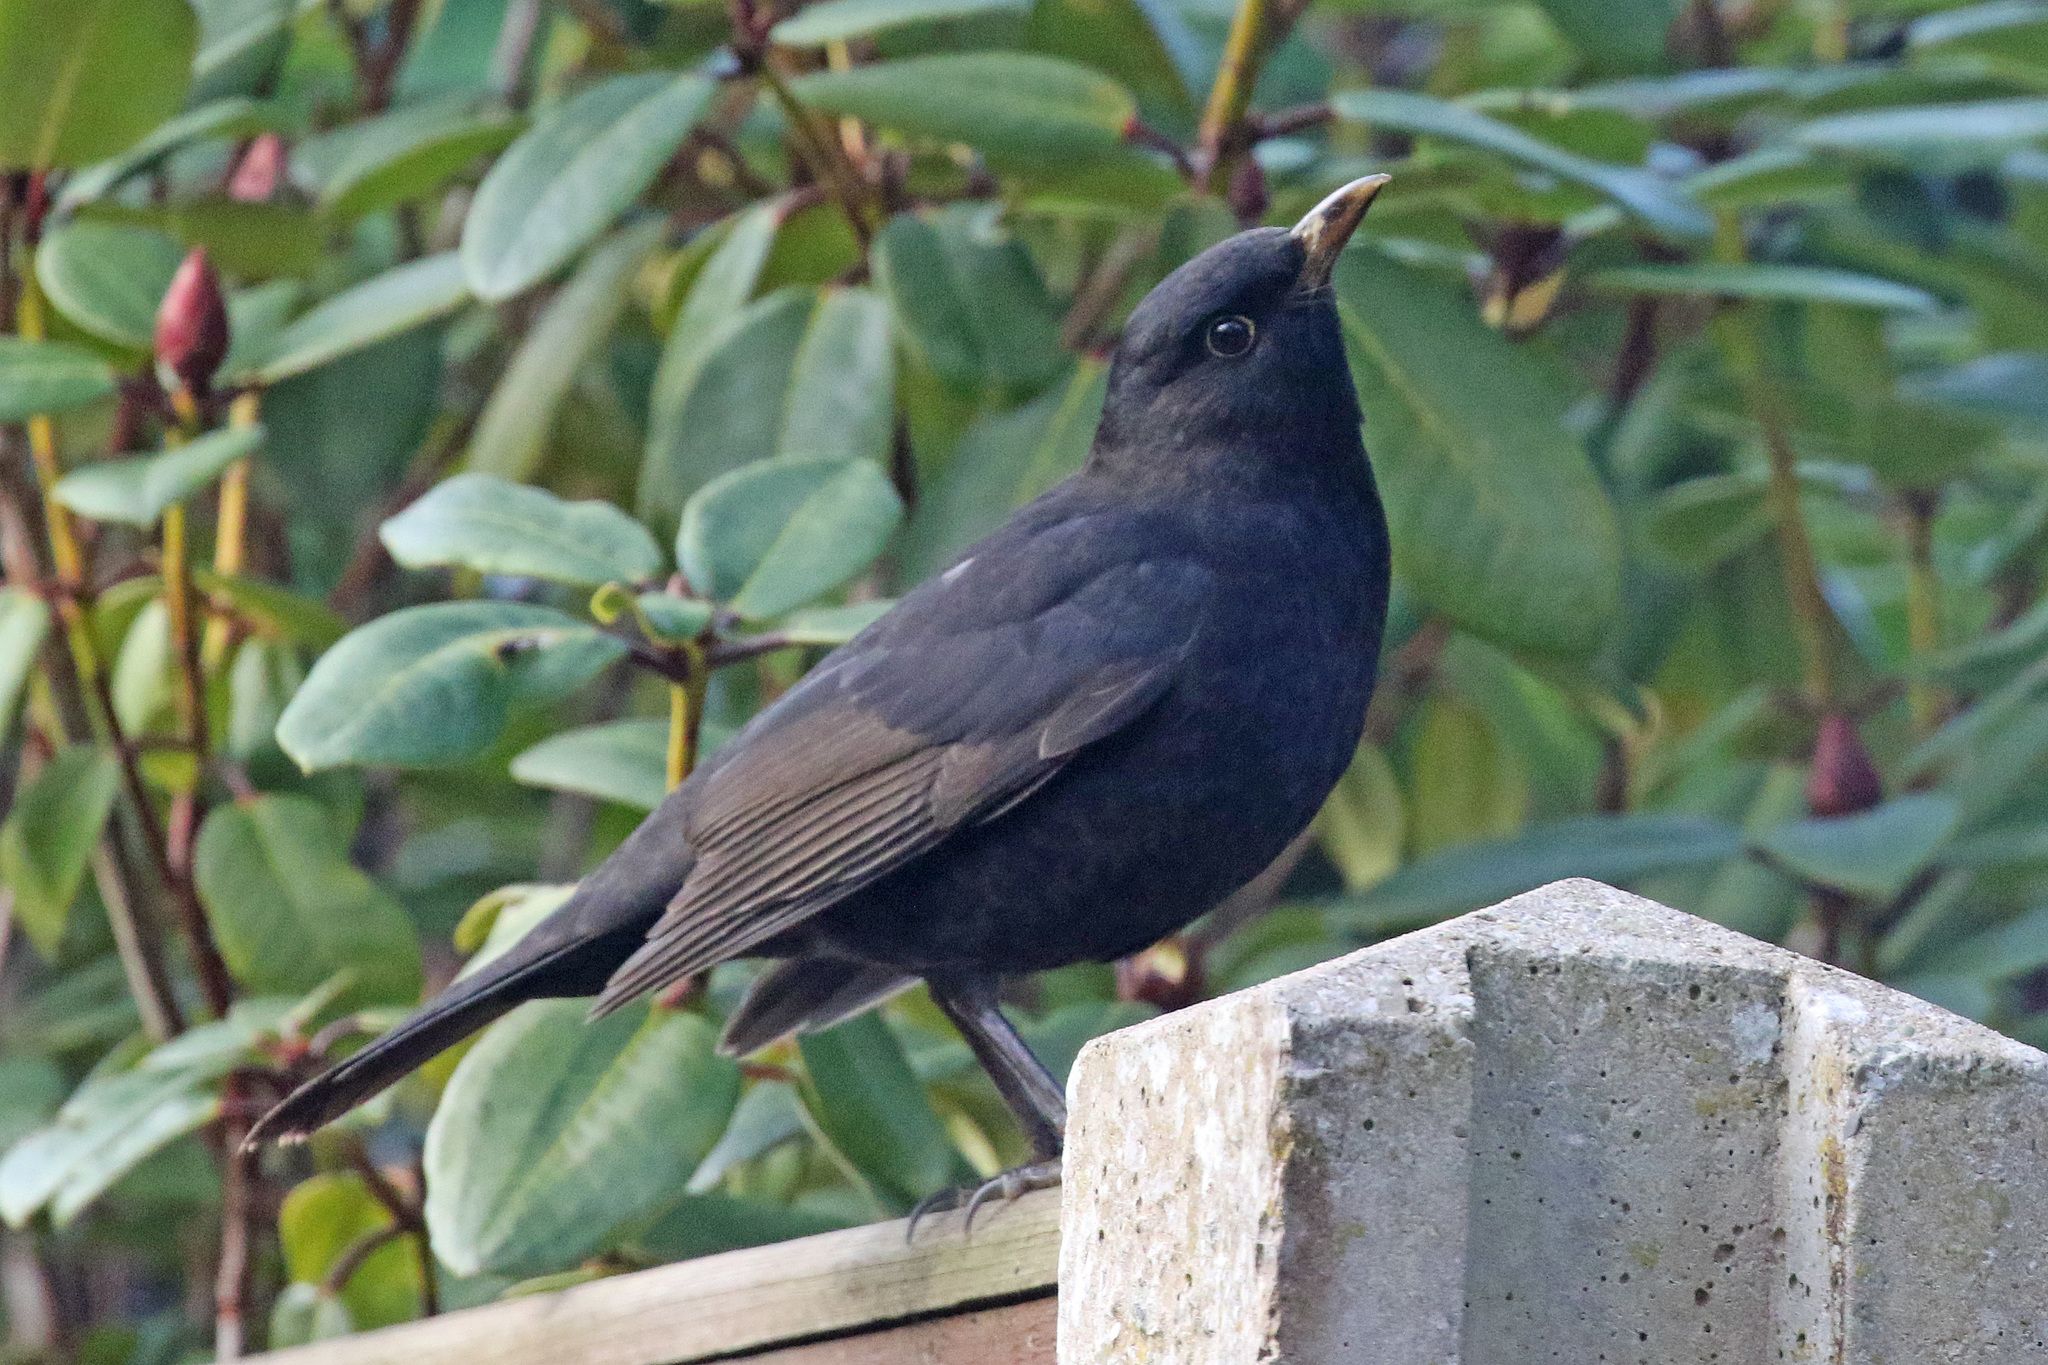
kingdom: Animalia
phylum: Chordata
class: Aves
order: Passeriformes
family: Turdidae
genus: Turdus
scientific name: Turdus merula
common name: Common blackbird
